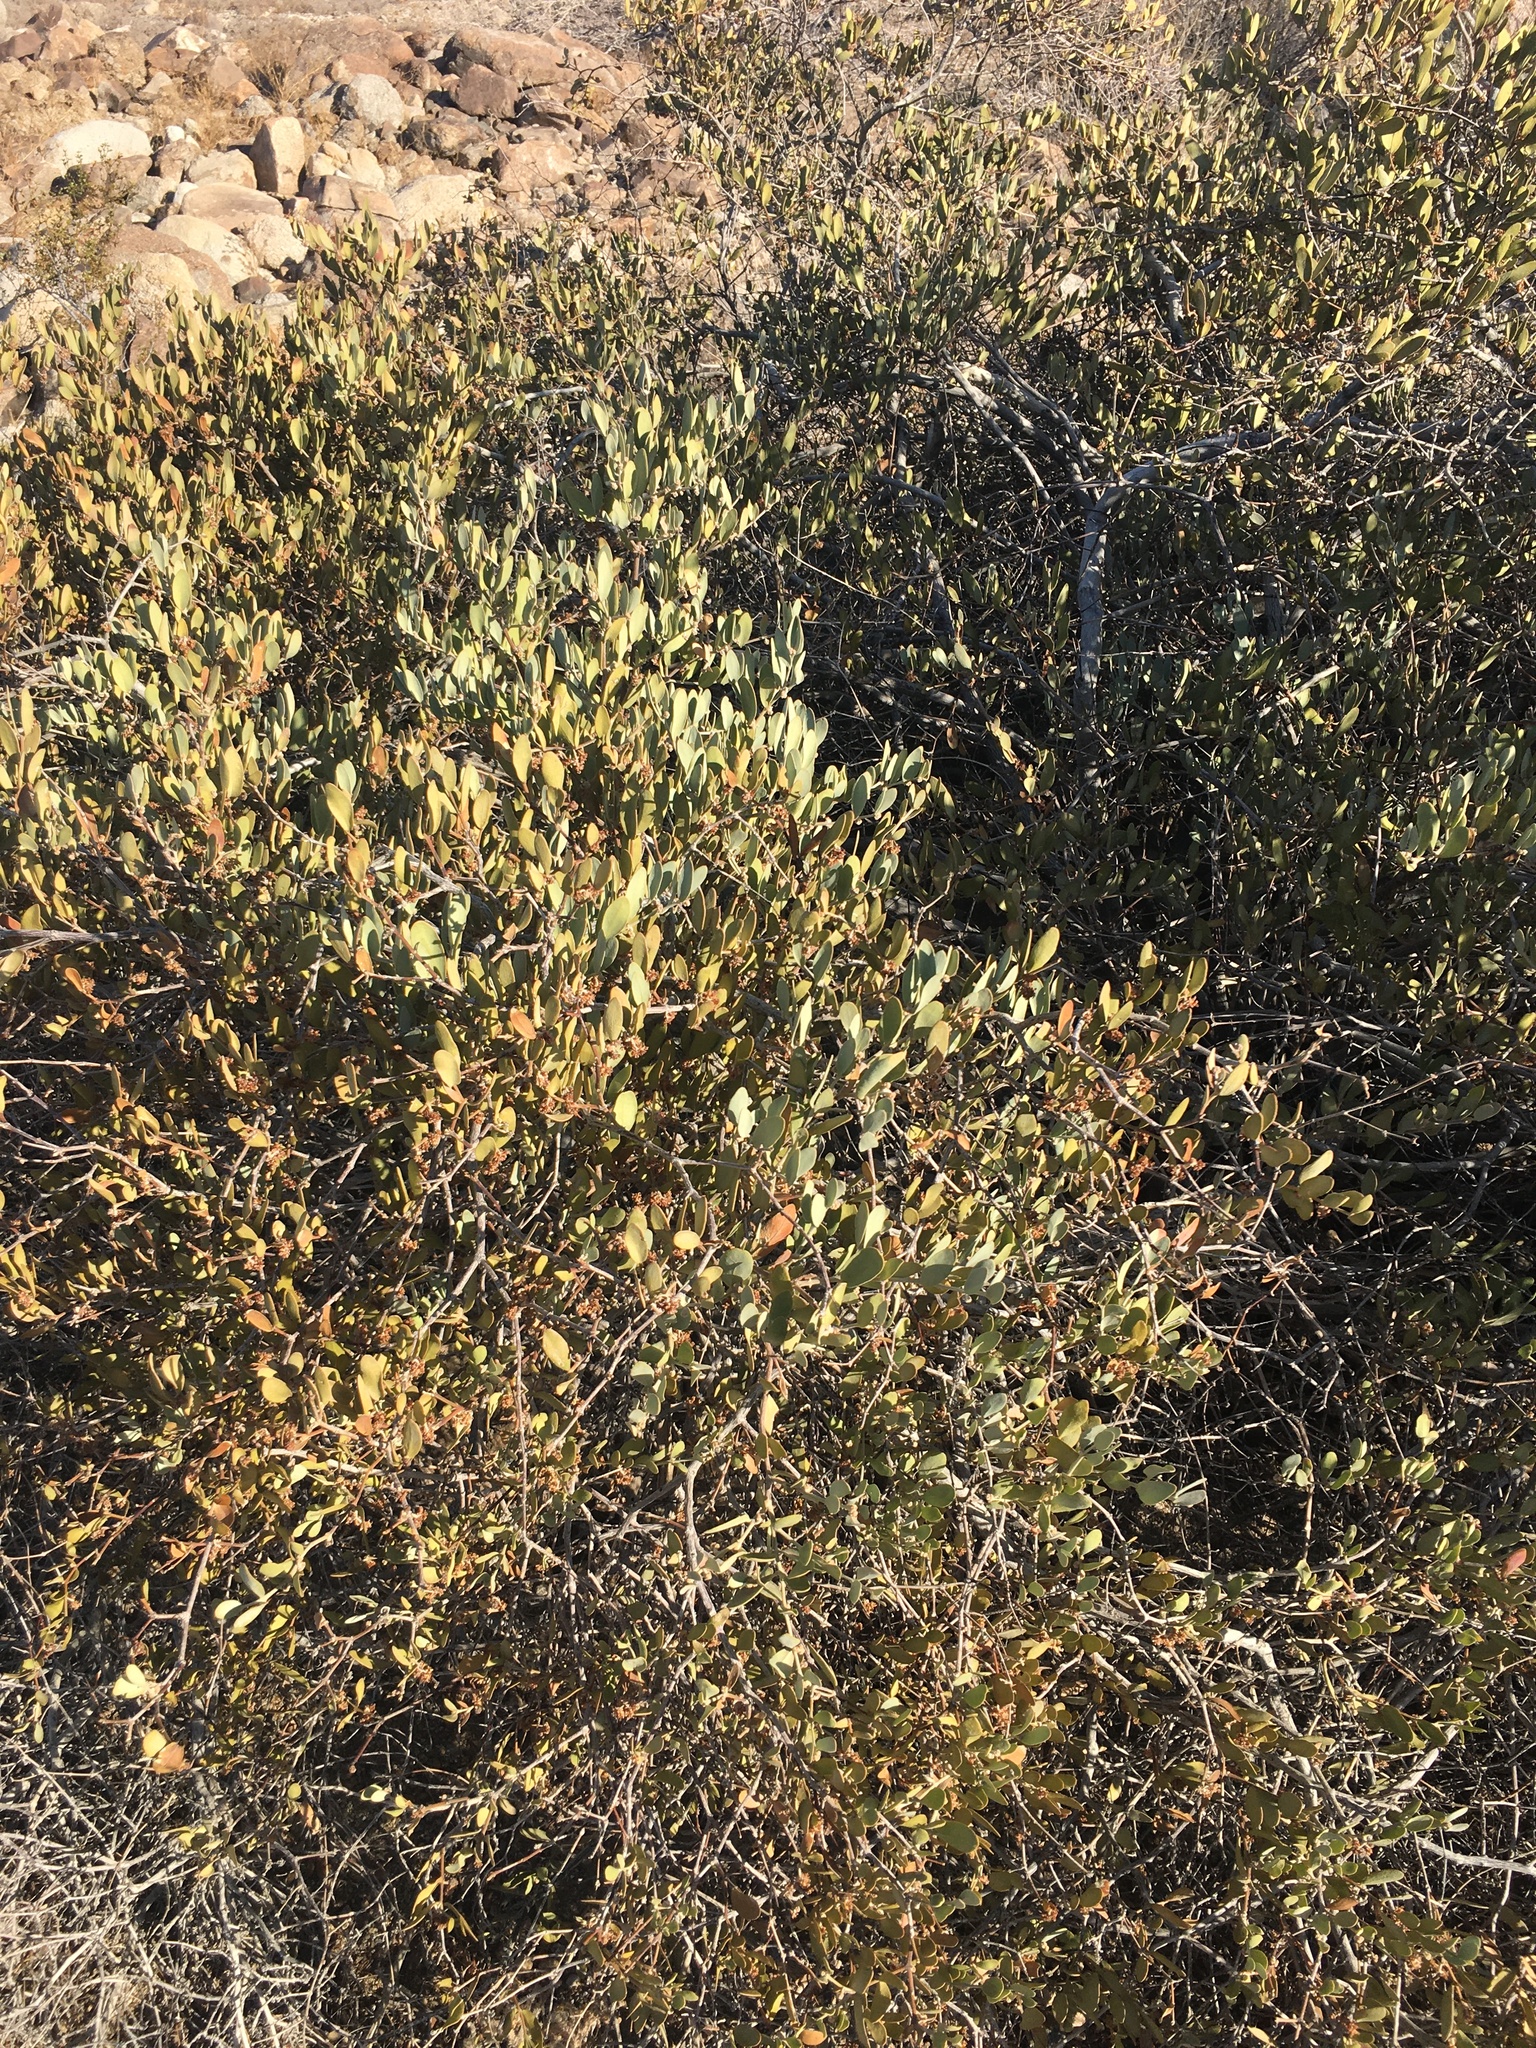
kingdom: Plantae
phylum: Tracheophyta
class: Magnoliopsida
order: Caryophyllales
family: Simmondsiaceae
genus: Simmondsia
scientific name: Simmondsia chinensis
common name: Jojoba
